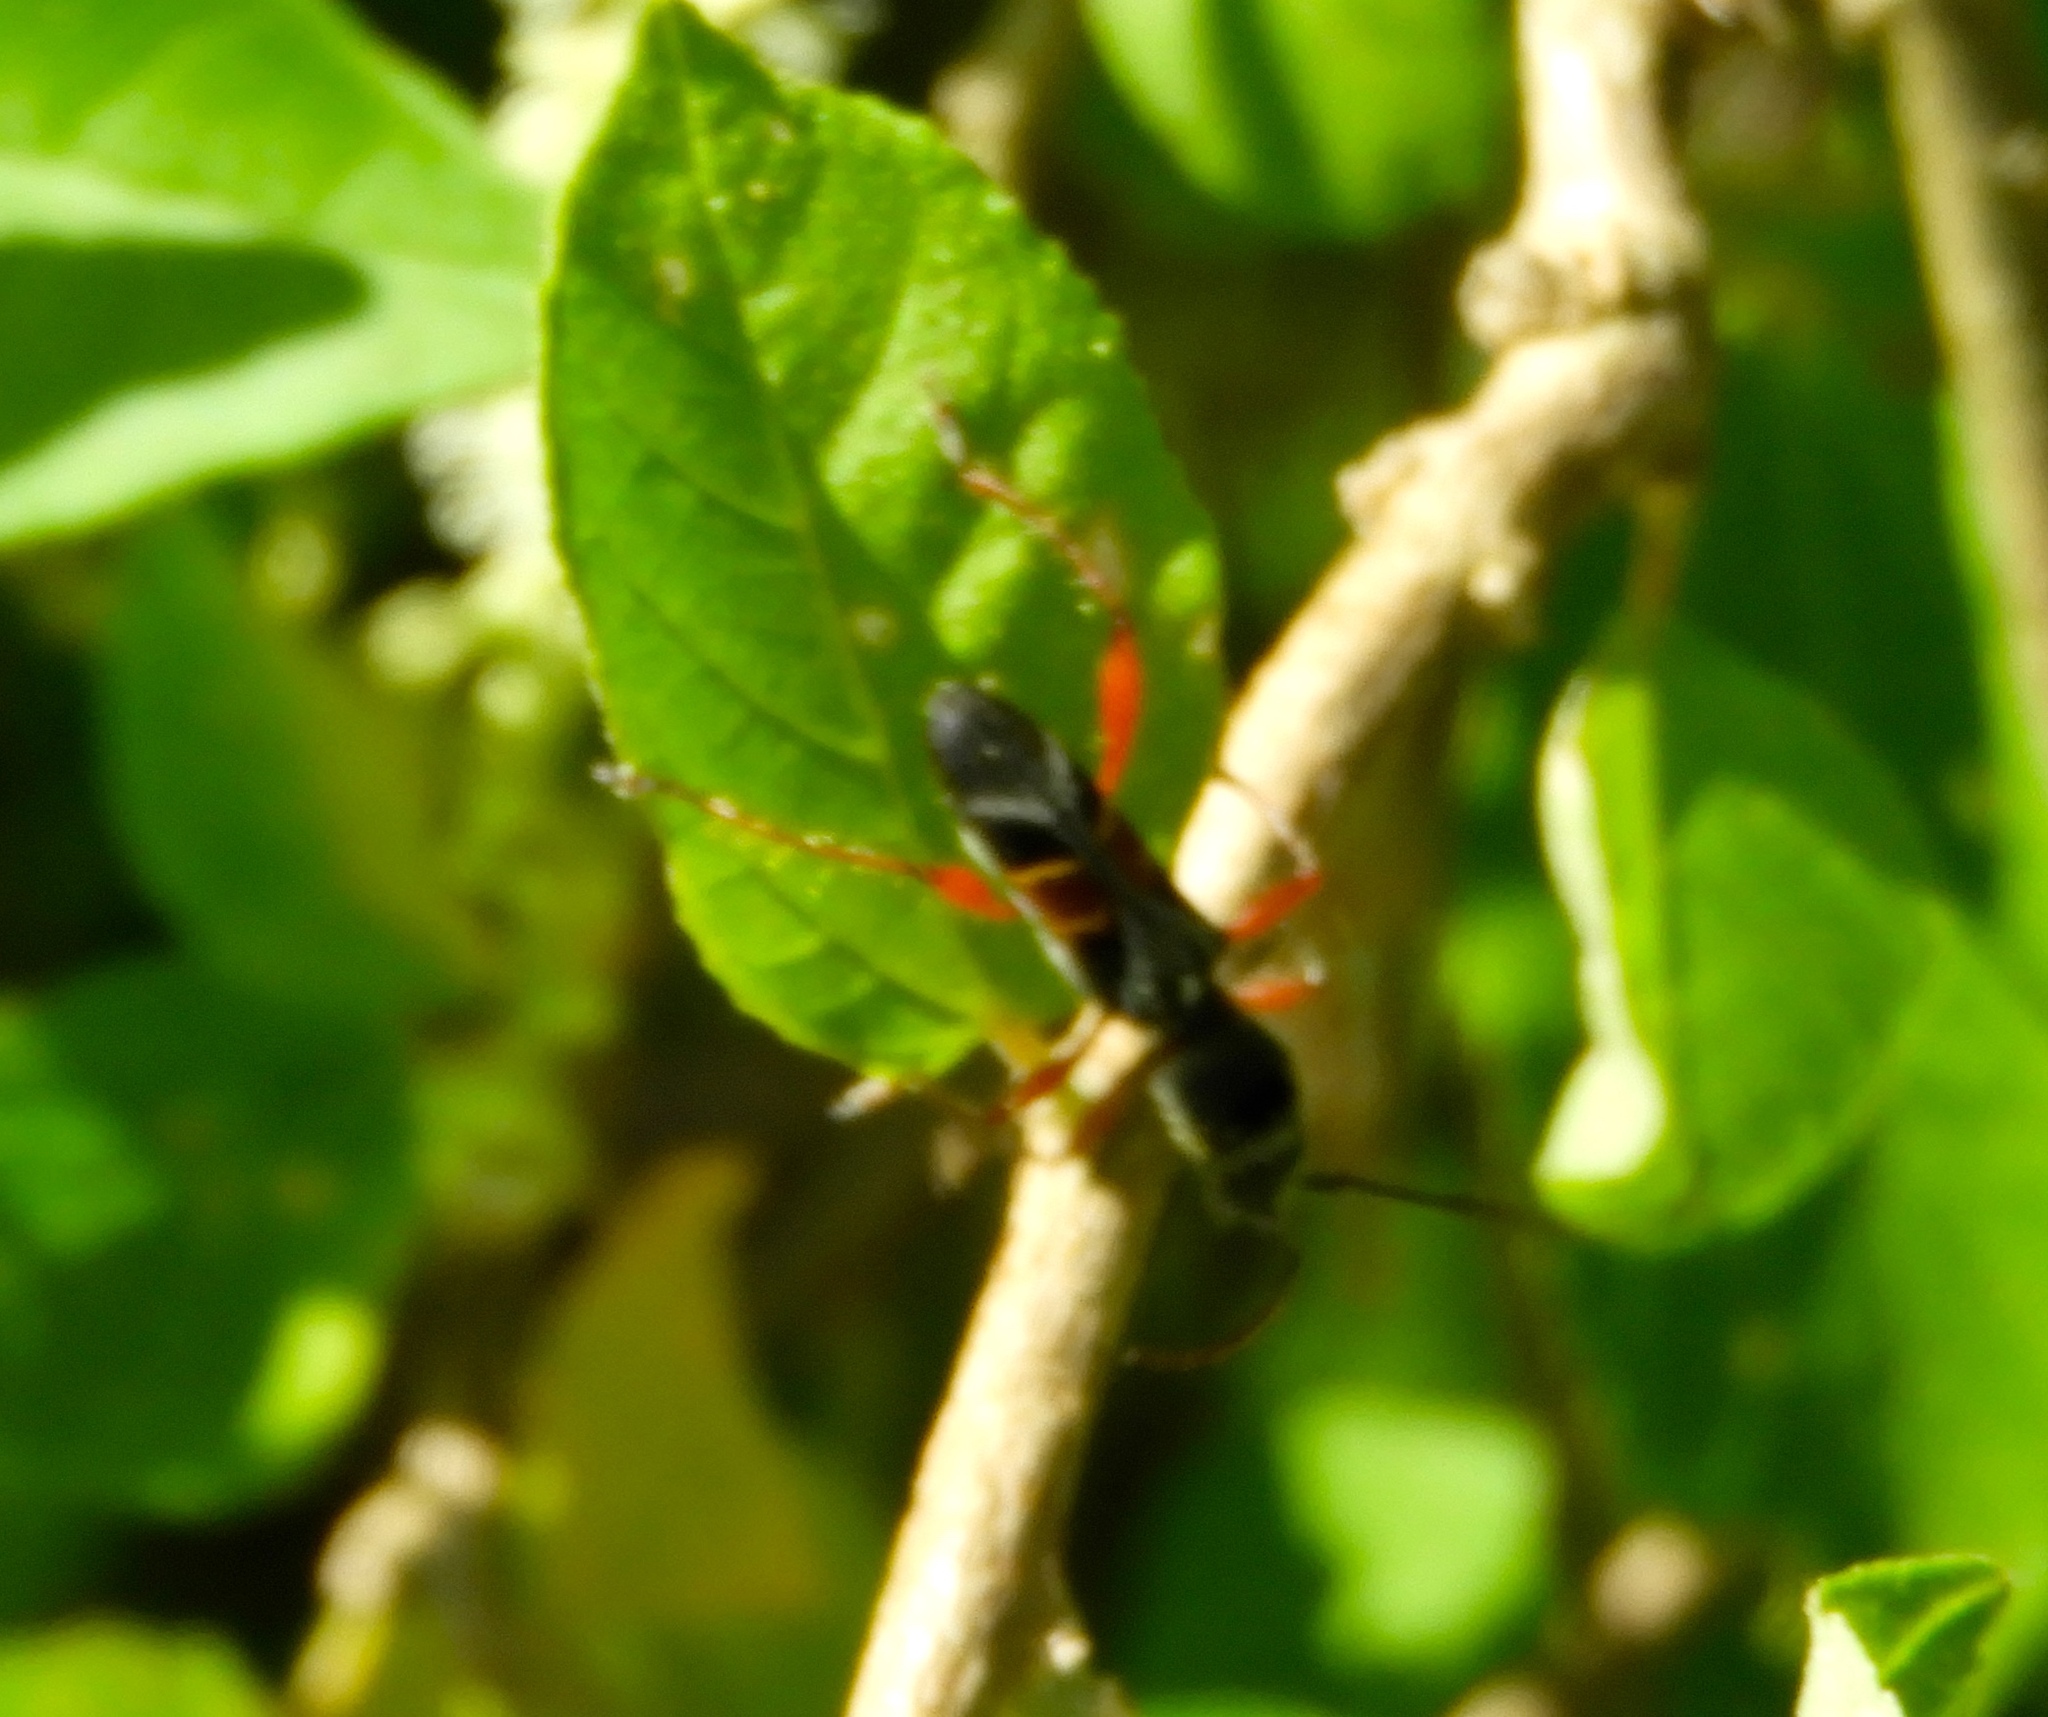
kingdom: Animalia
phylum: Arthropoda
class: Insecta
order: Coleoptera
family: Cerambycidae
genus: Euderces
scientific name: Euderces pulcher
